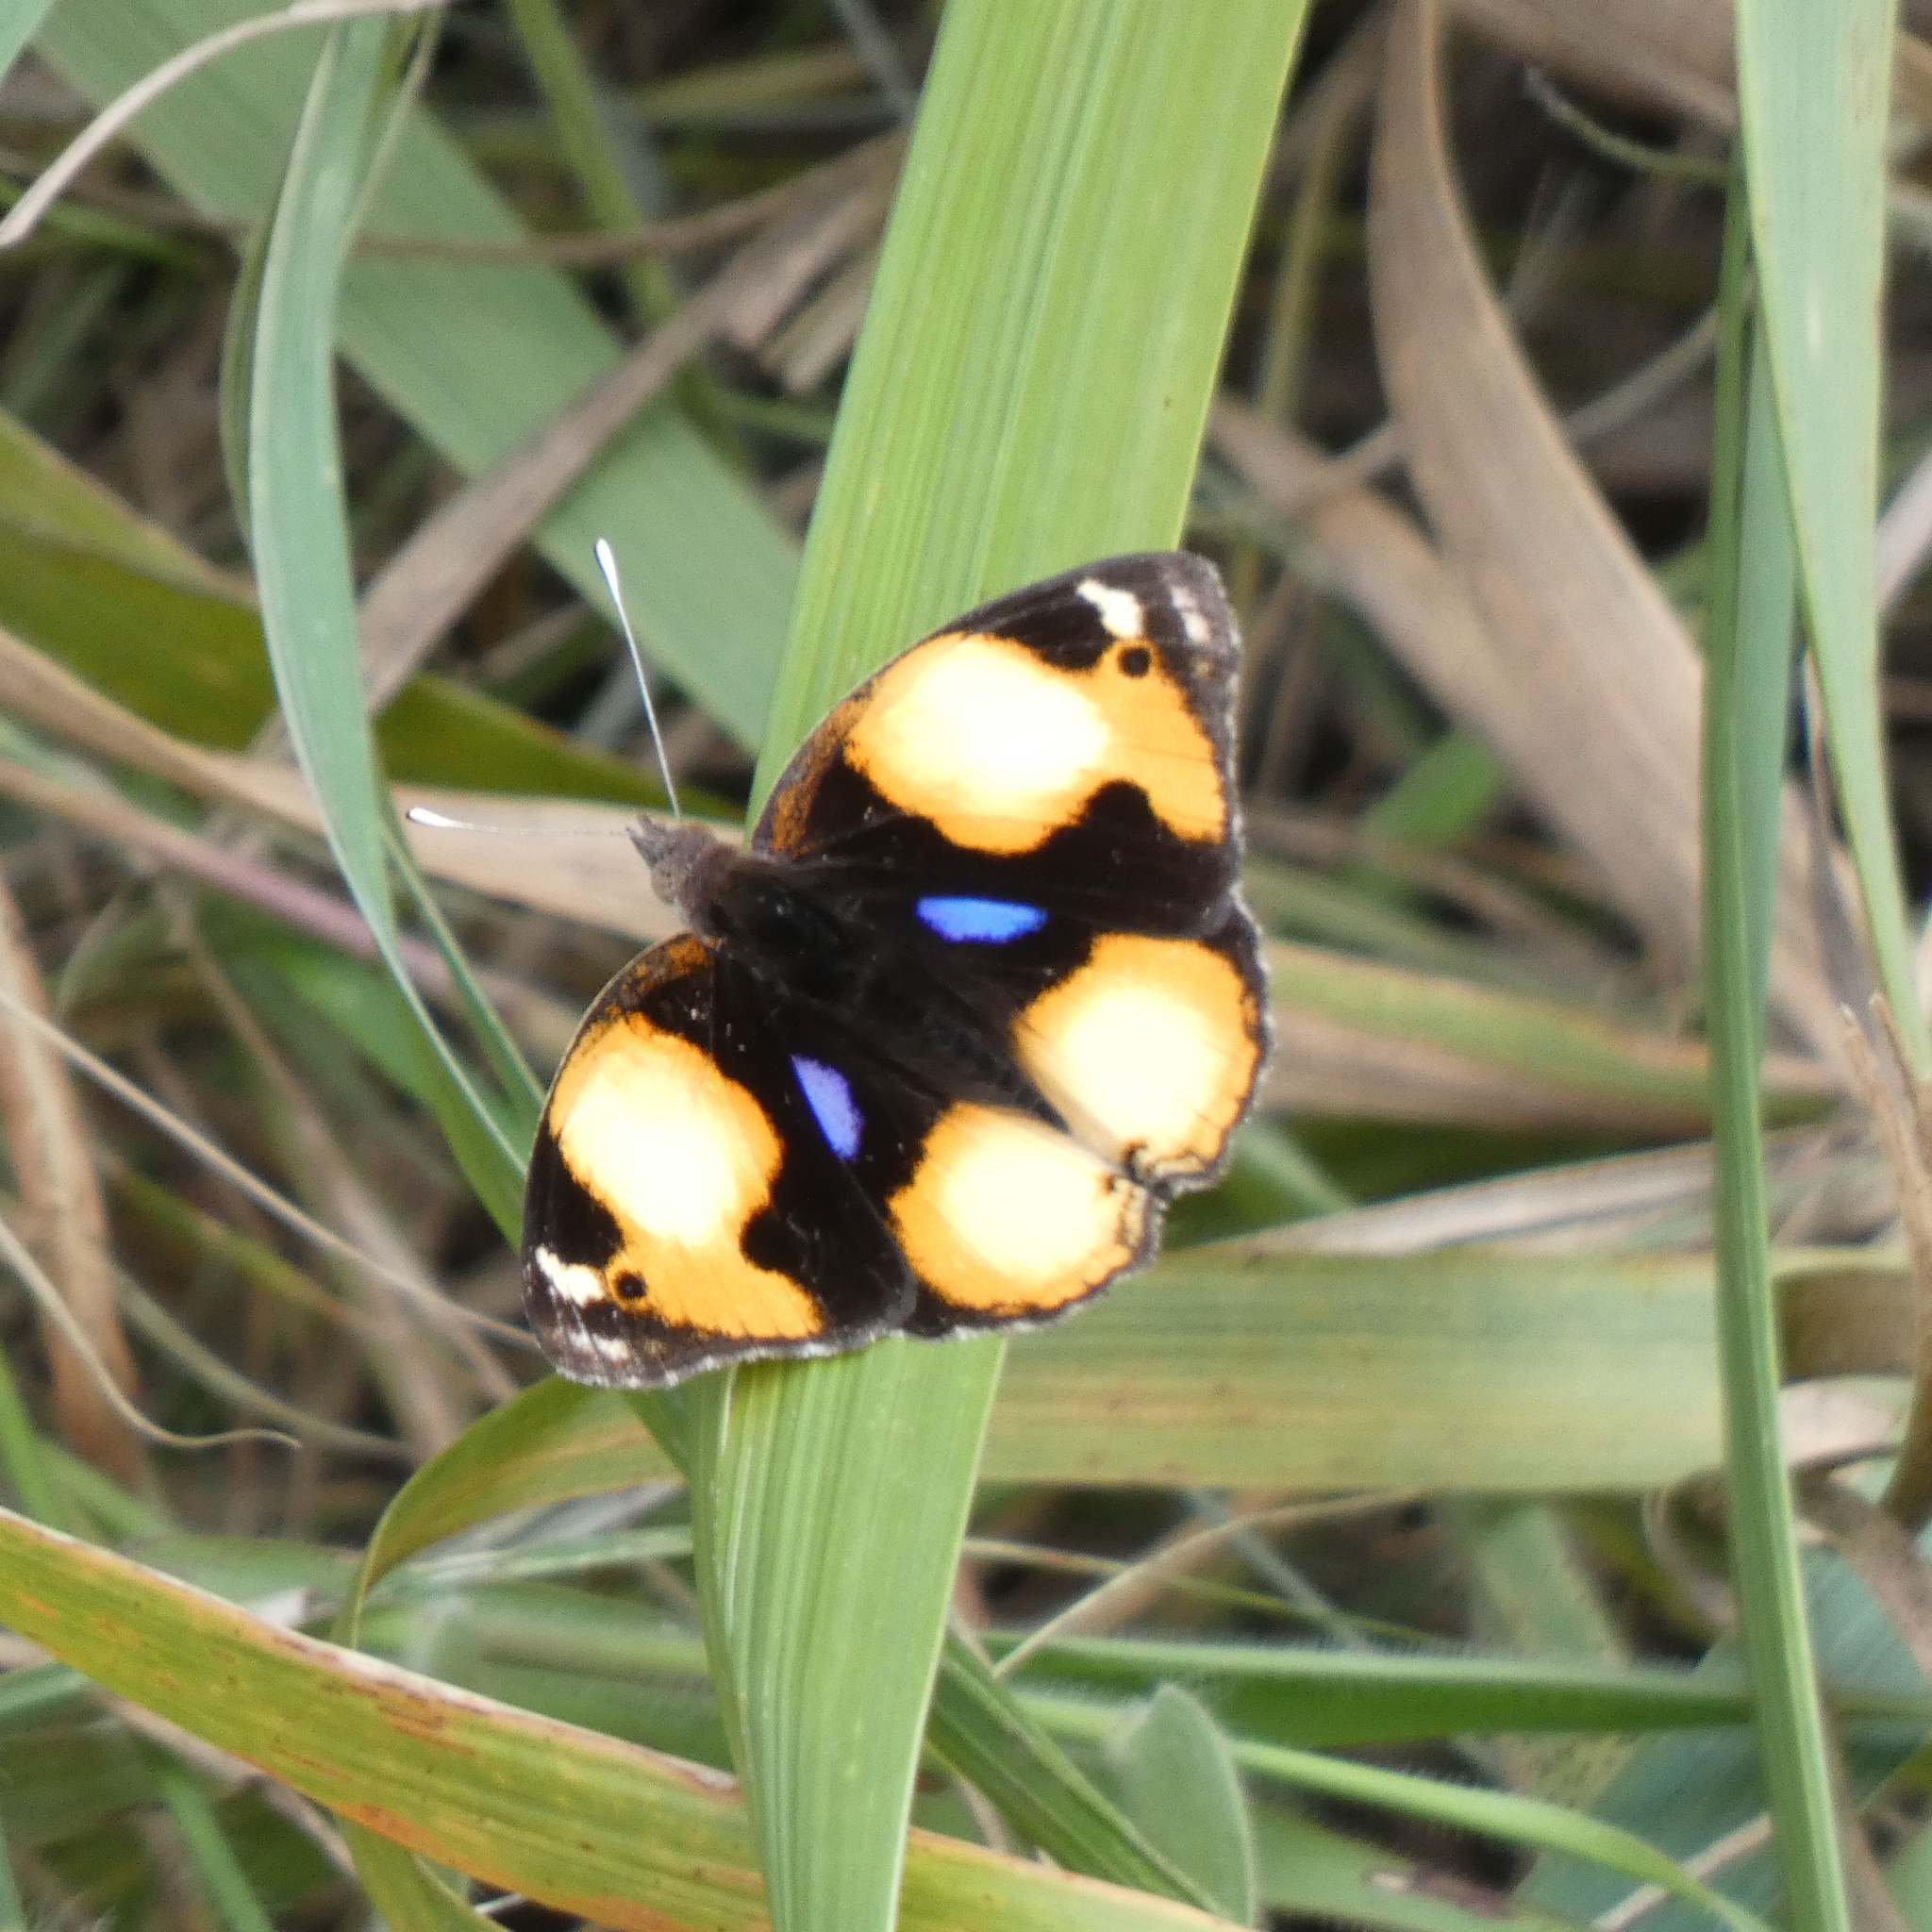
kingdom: Animalia
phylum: Arthropoda
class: Insecta
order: Lepidoptera
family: Nymphalidae
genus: Junonia
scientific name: Junonia hierta
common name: Yellow pansy
